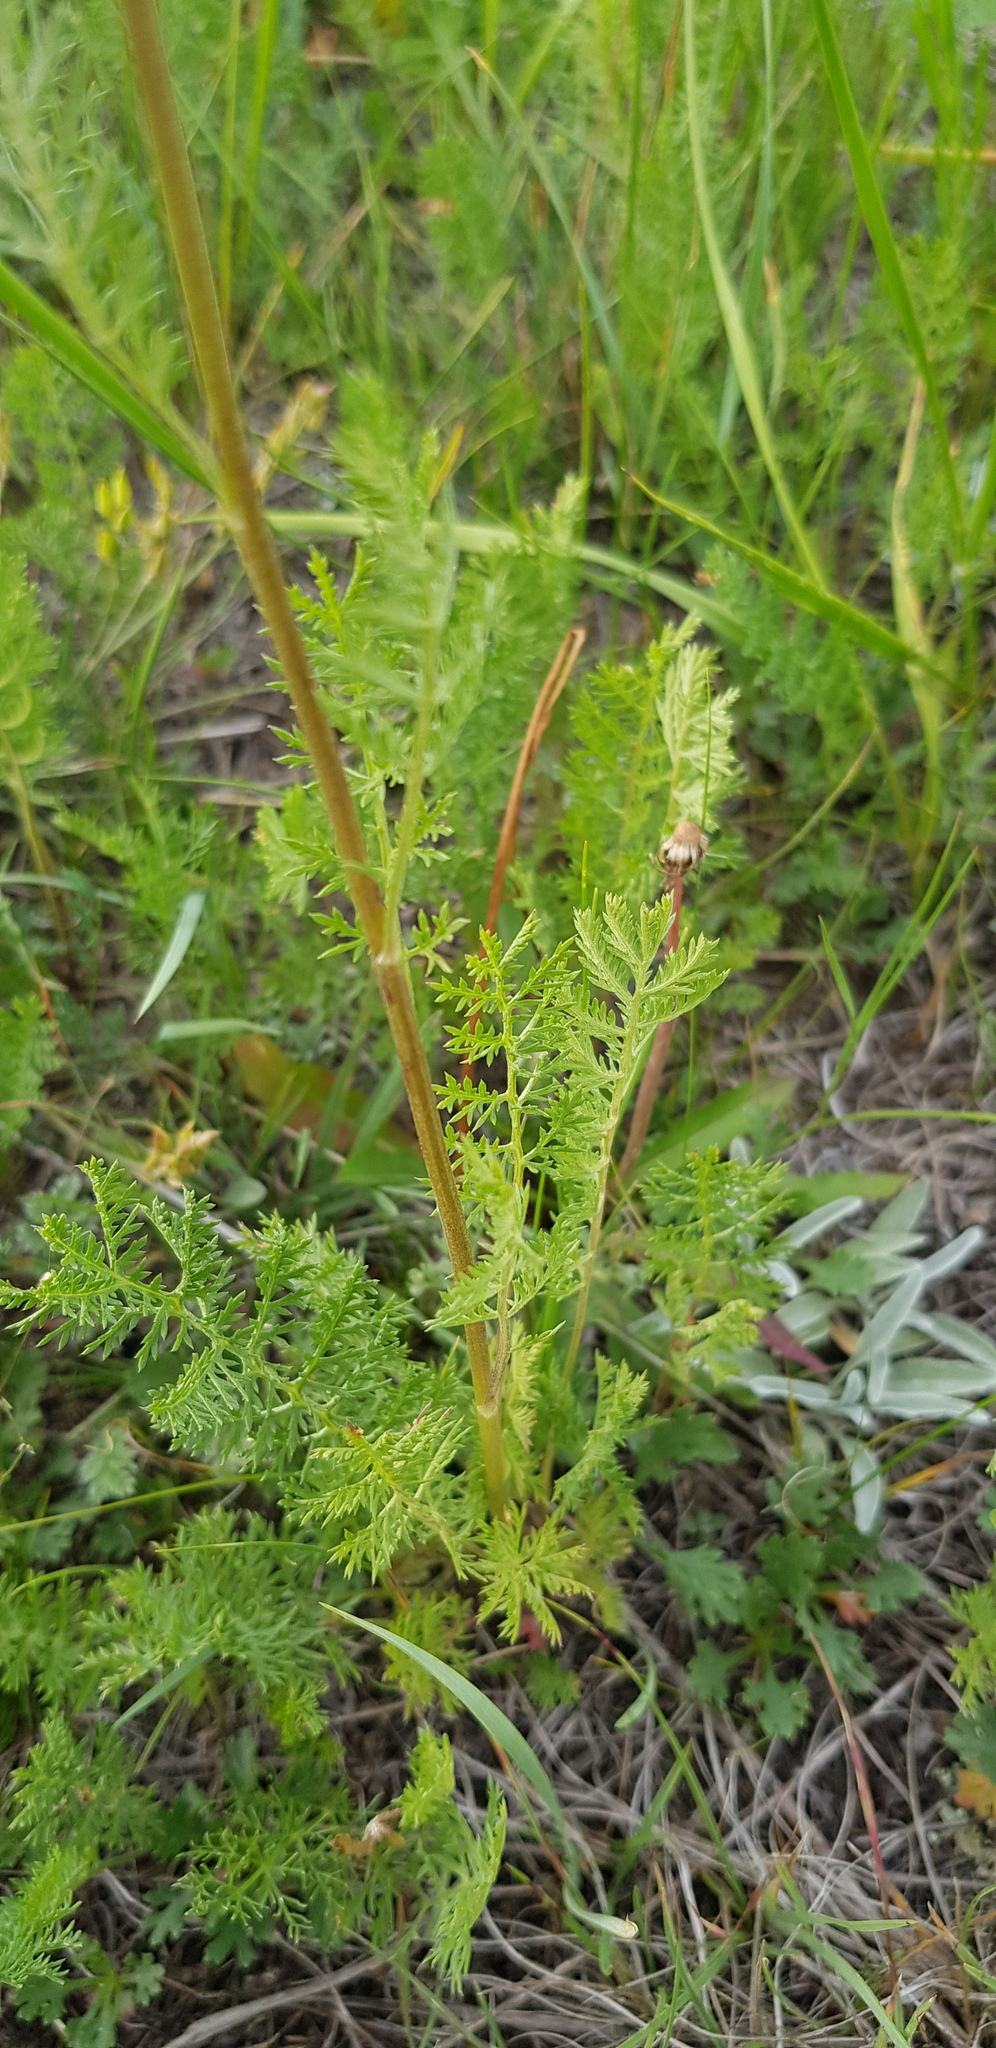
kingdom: Plantae
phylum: Tracheophyta
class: Magnoliopsida
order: Asterales
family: Asteraceae
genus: Artemisia
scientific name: Artemisia gmelinii
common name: Gmelin's wormwood
